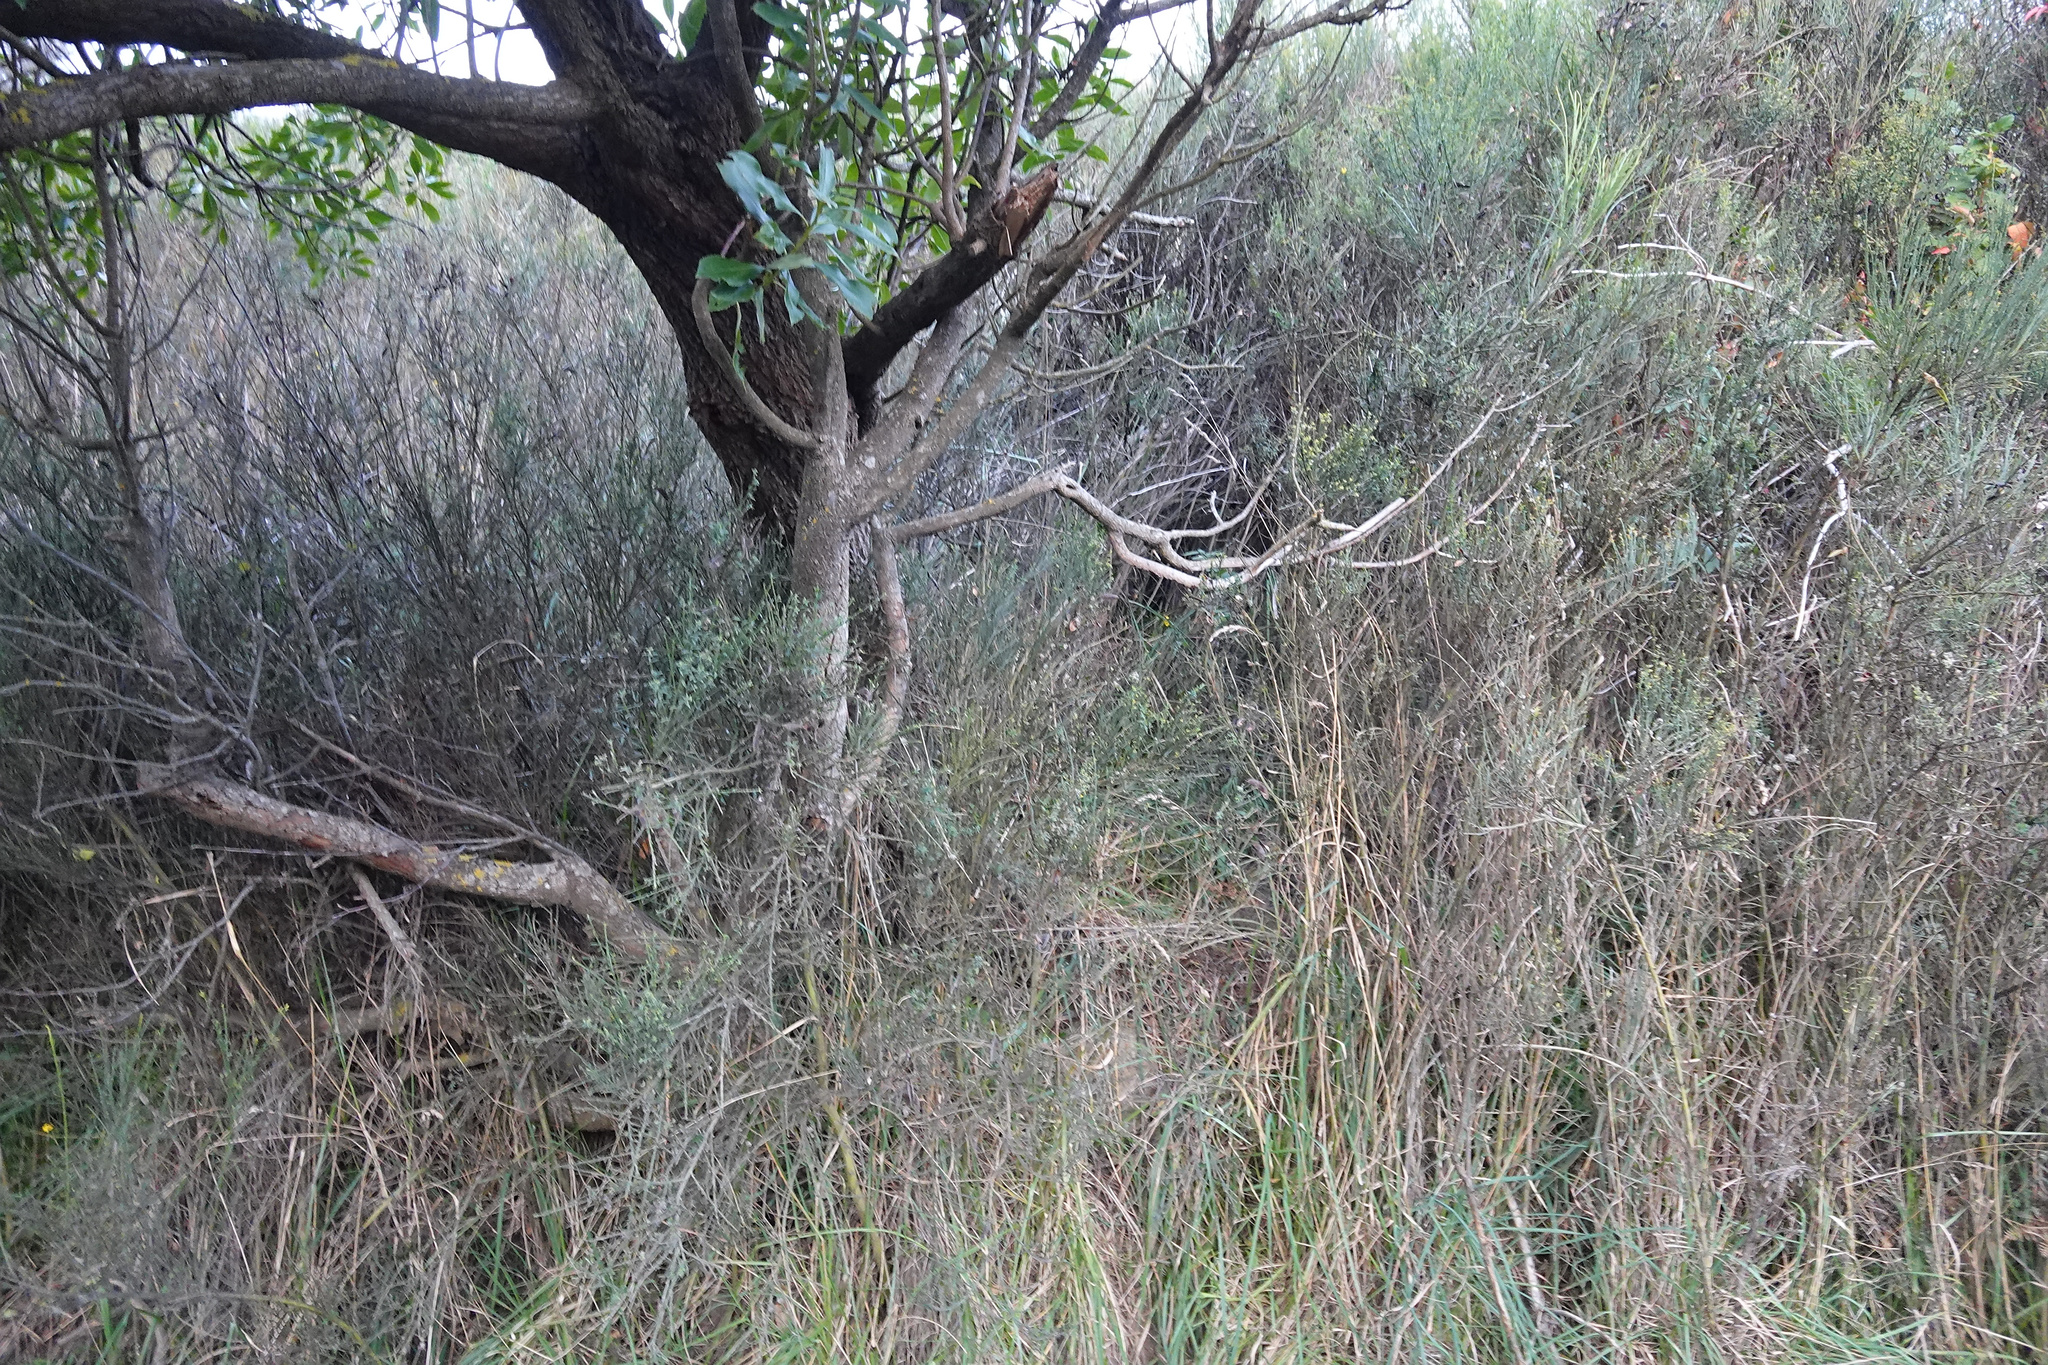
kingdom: Plantae
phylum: Tracheophyta
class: Magnoliopsida
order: Fabales
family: Fabaceae
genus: Cytisus
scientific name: Cytisus scoparius
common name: Scotch broom
